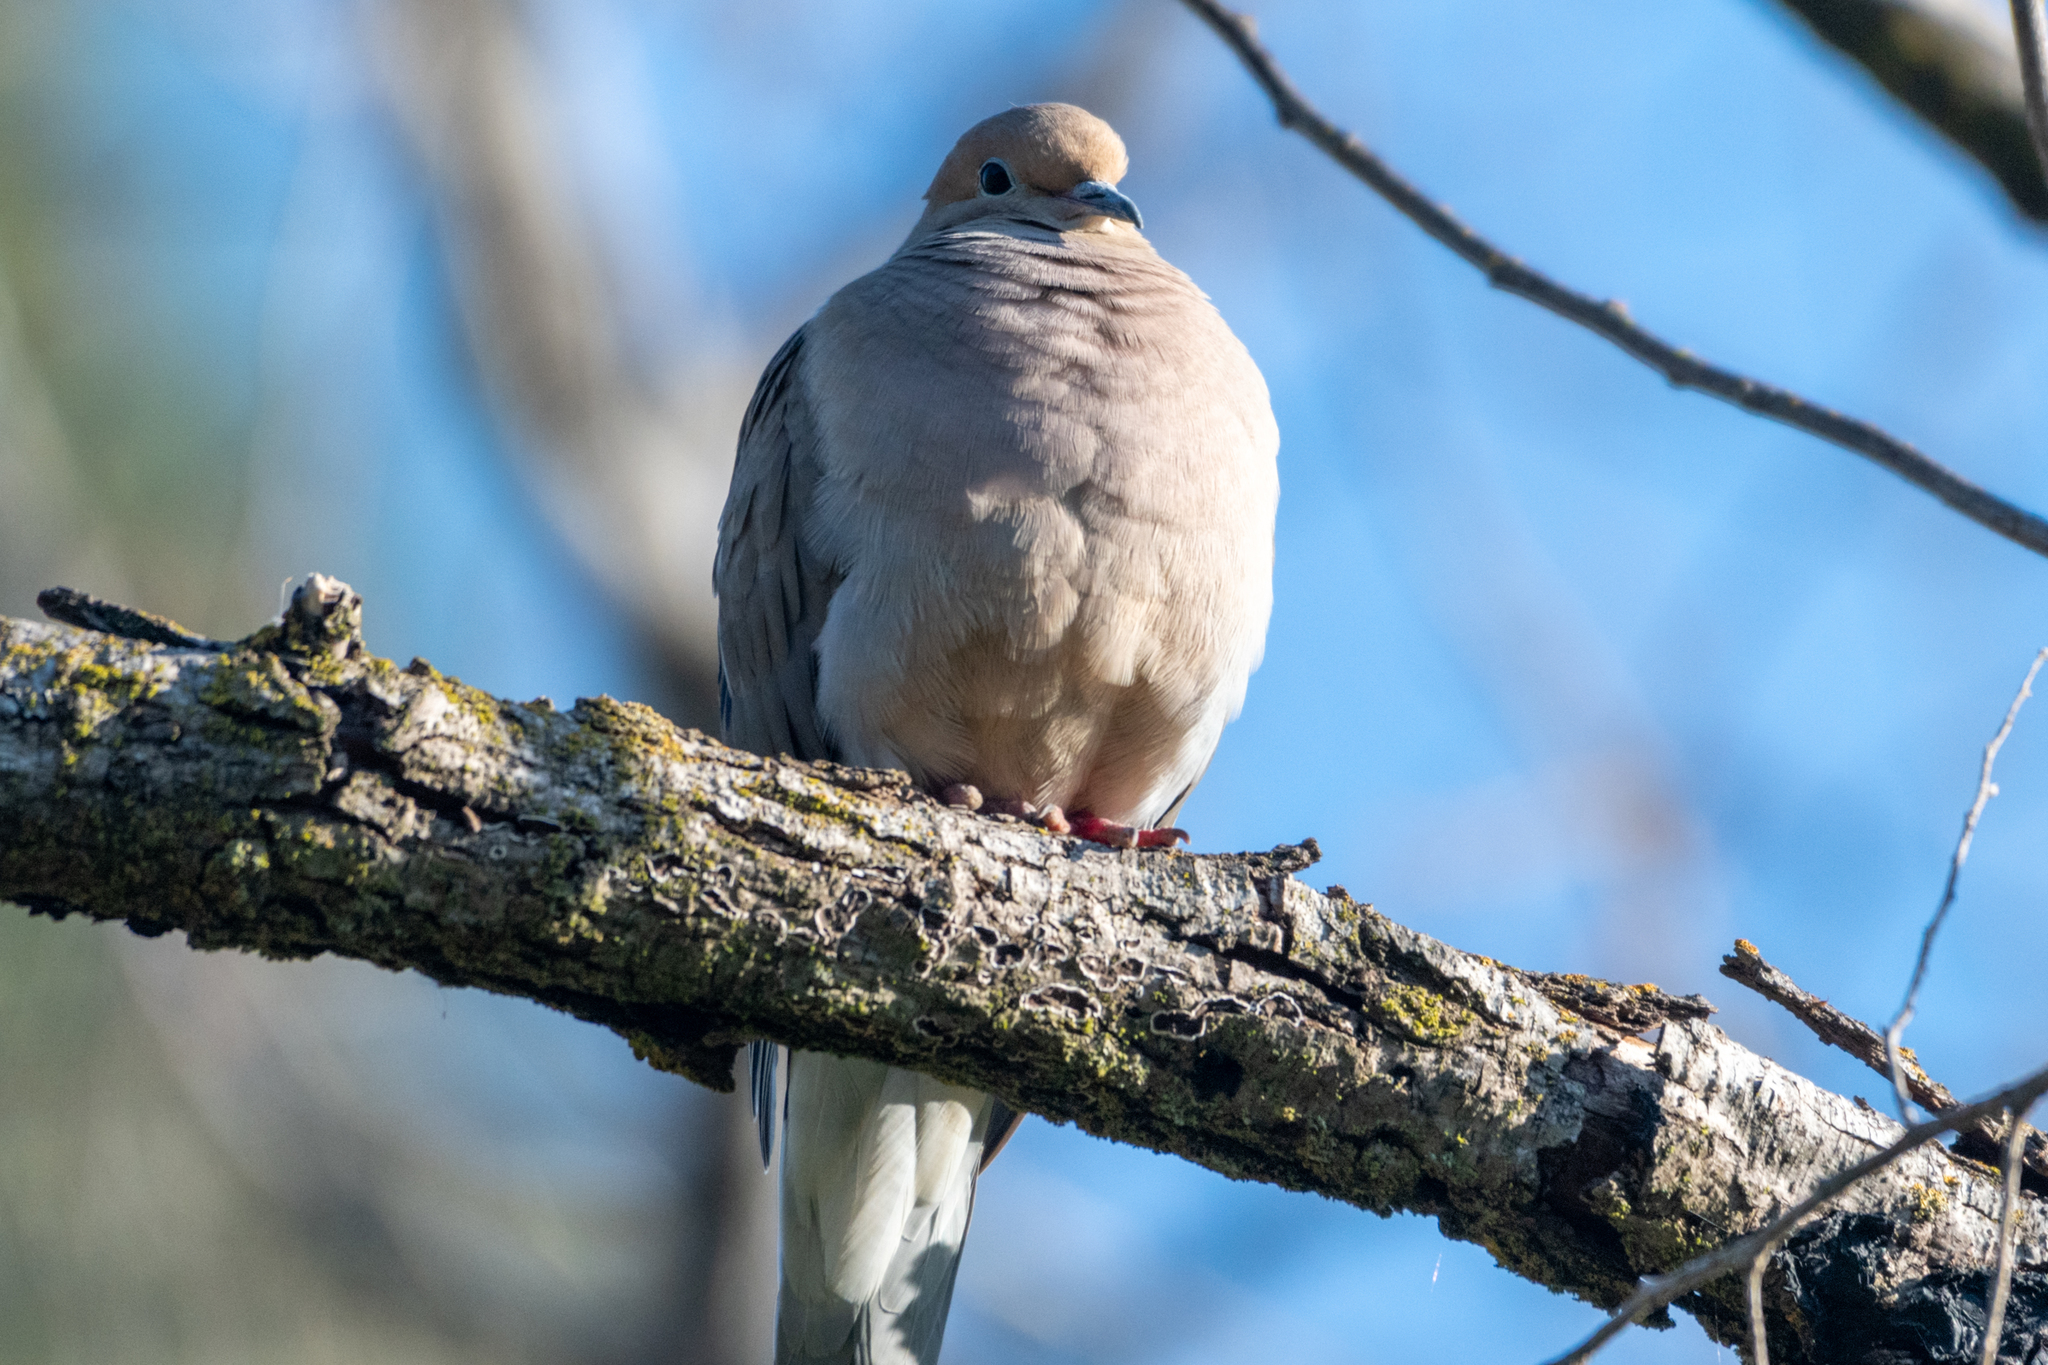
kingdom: Animalia
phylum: Chordata
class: Aves
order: Columbiformes
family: Columbidae
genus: Zenaida
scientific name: Zenaida macroura
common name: Mourning dove
